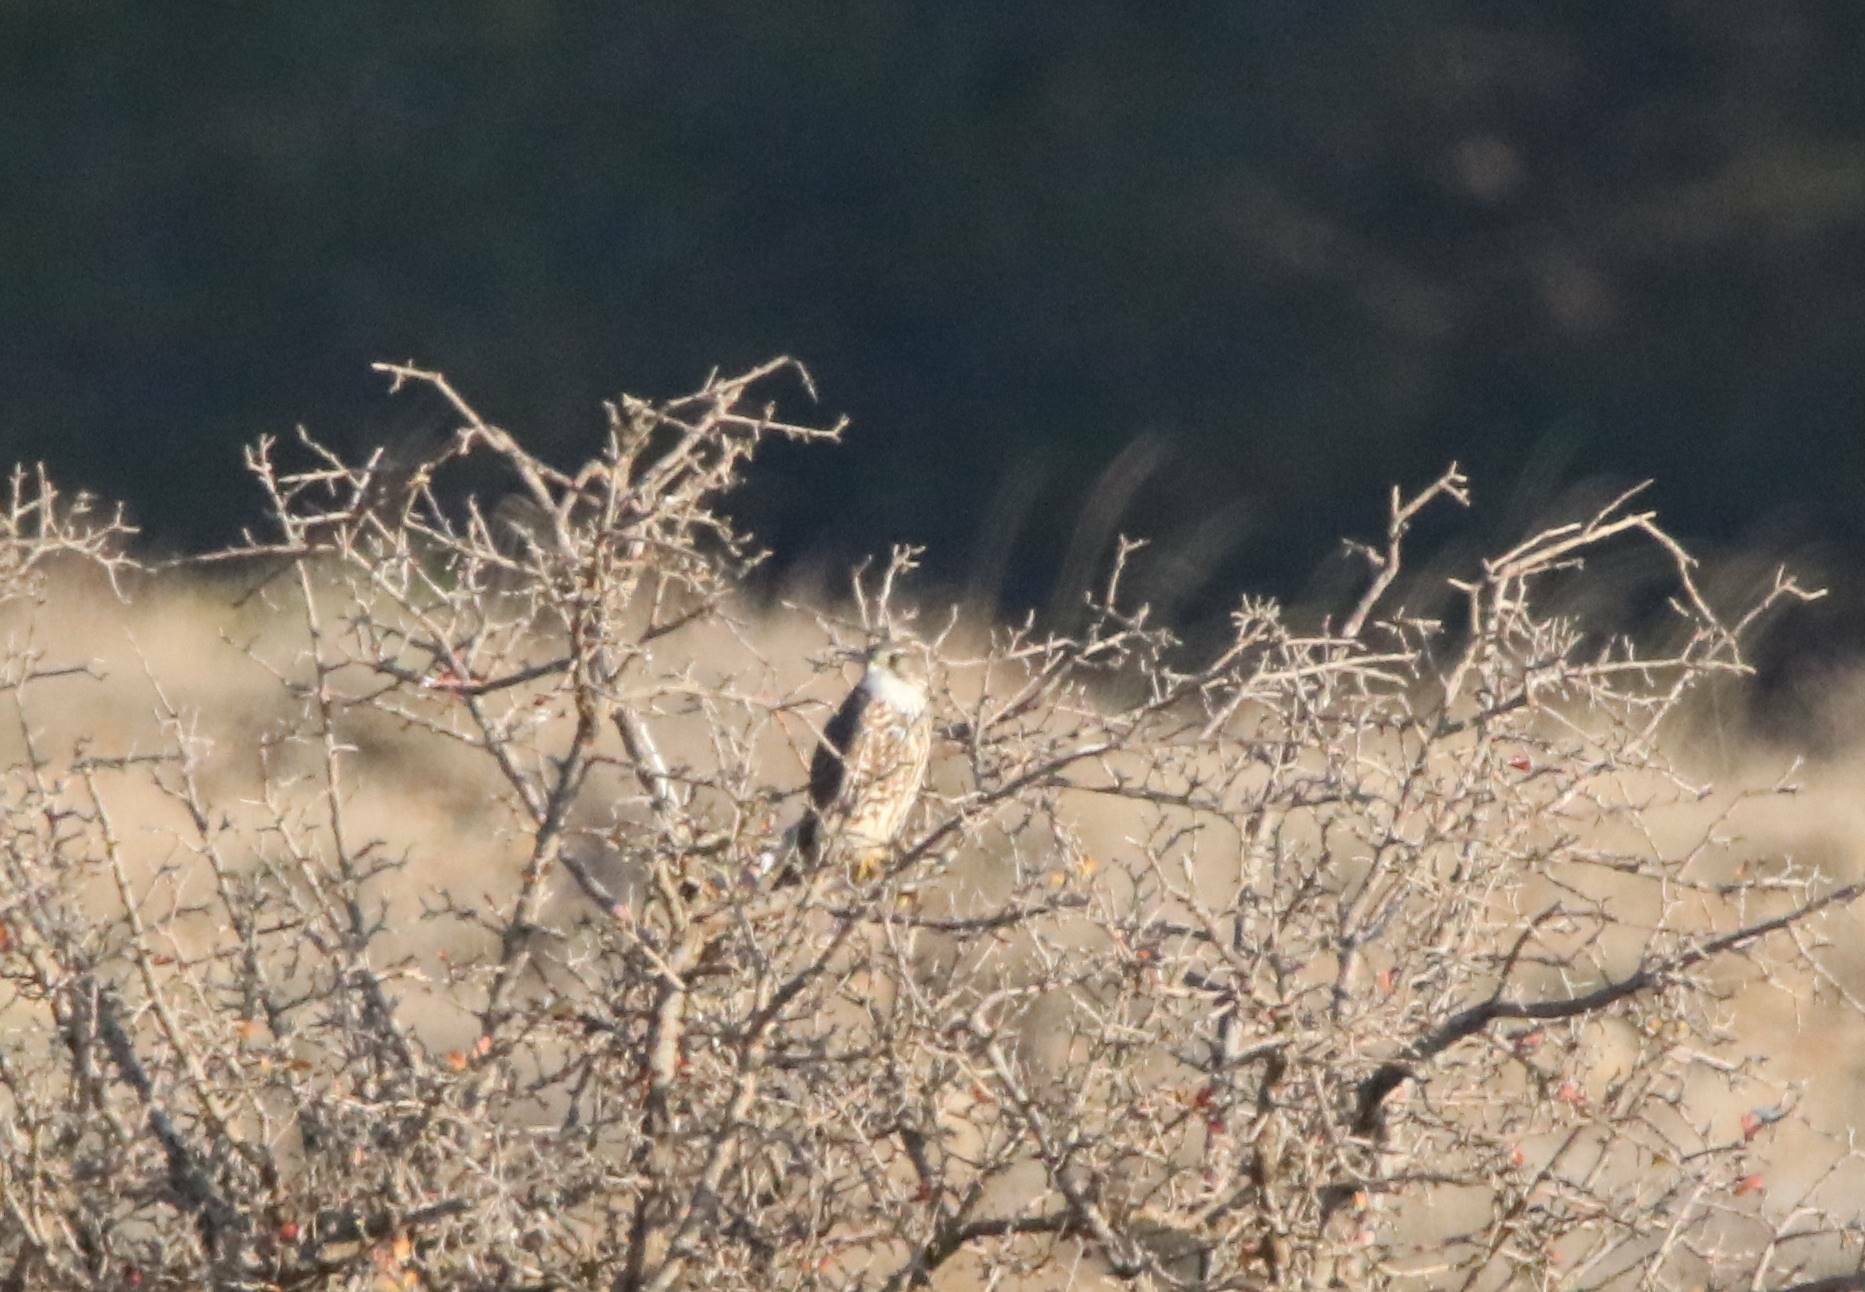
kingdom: Animalia
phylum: Chordata
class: Aves
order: Falconiformes
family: Falconidae
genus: Falco
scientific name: Falco columbarius
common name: Merlin
